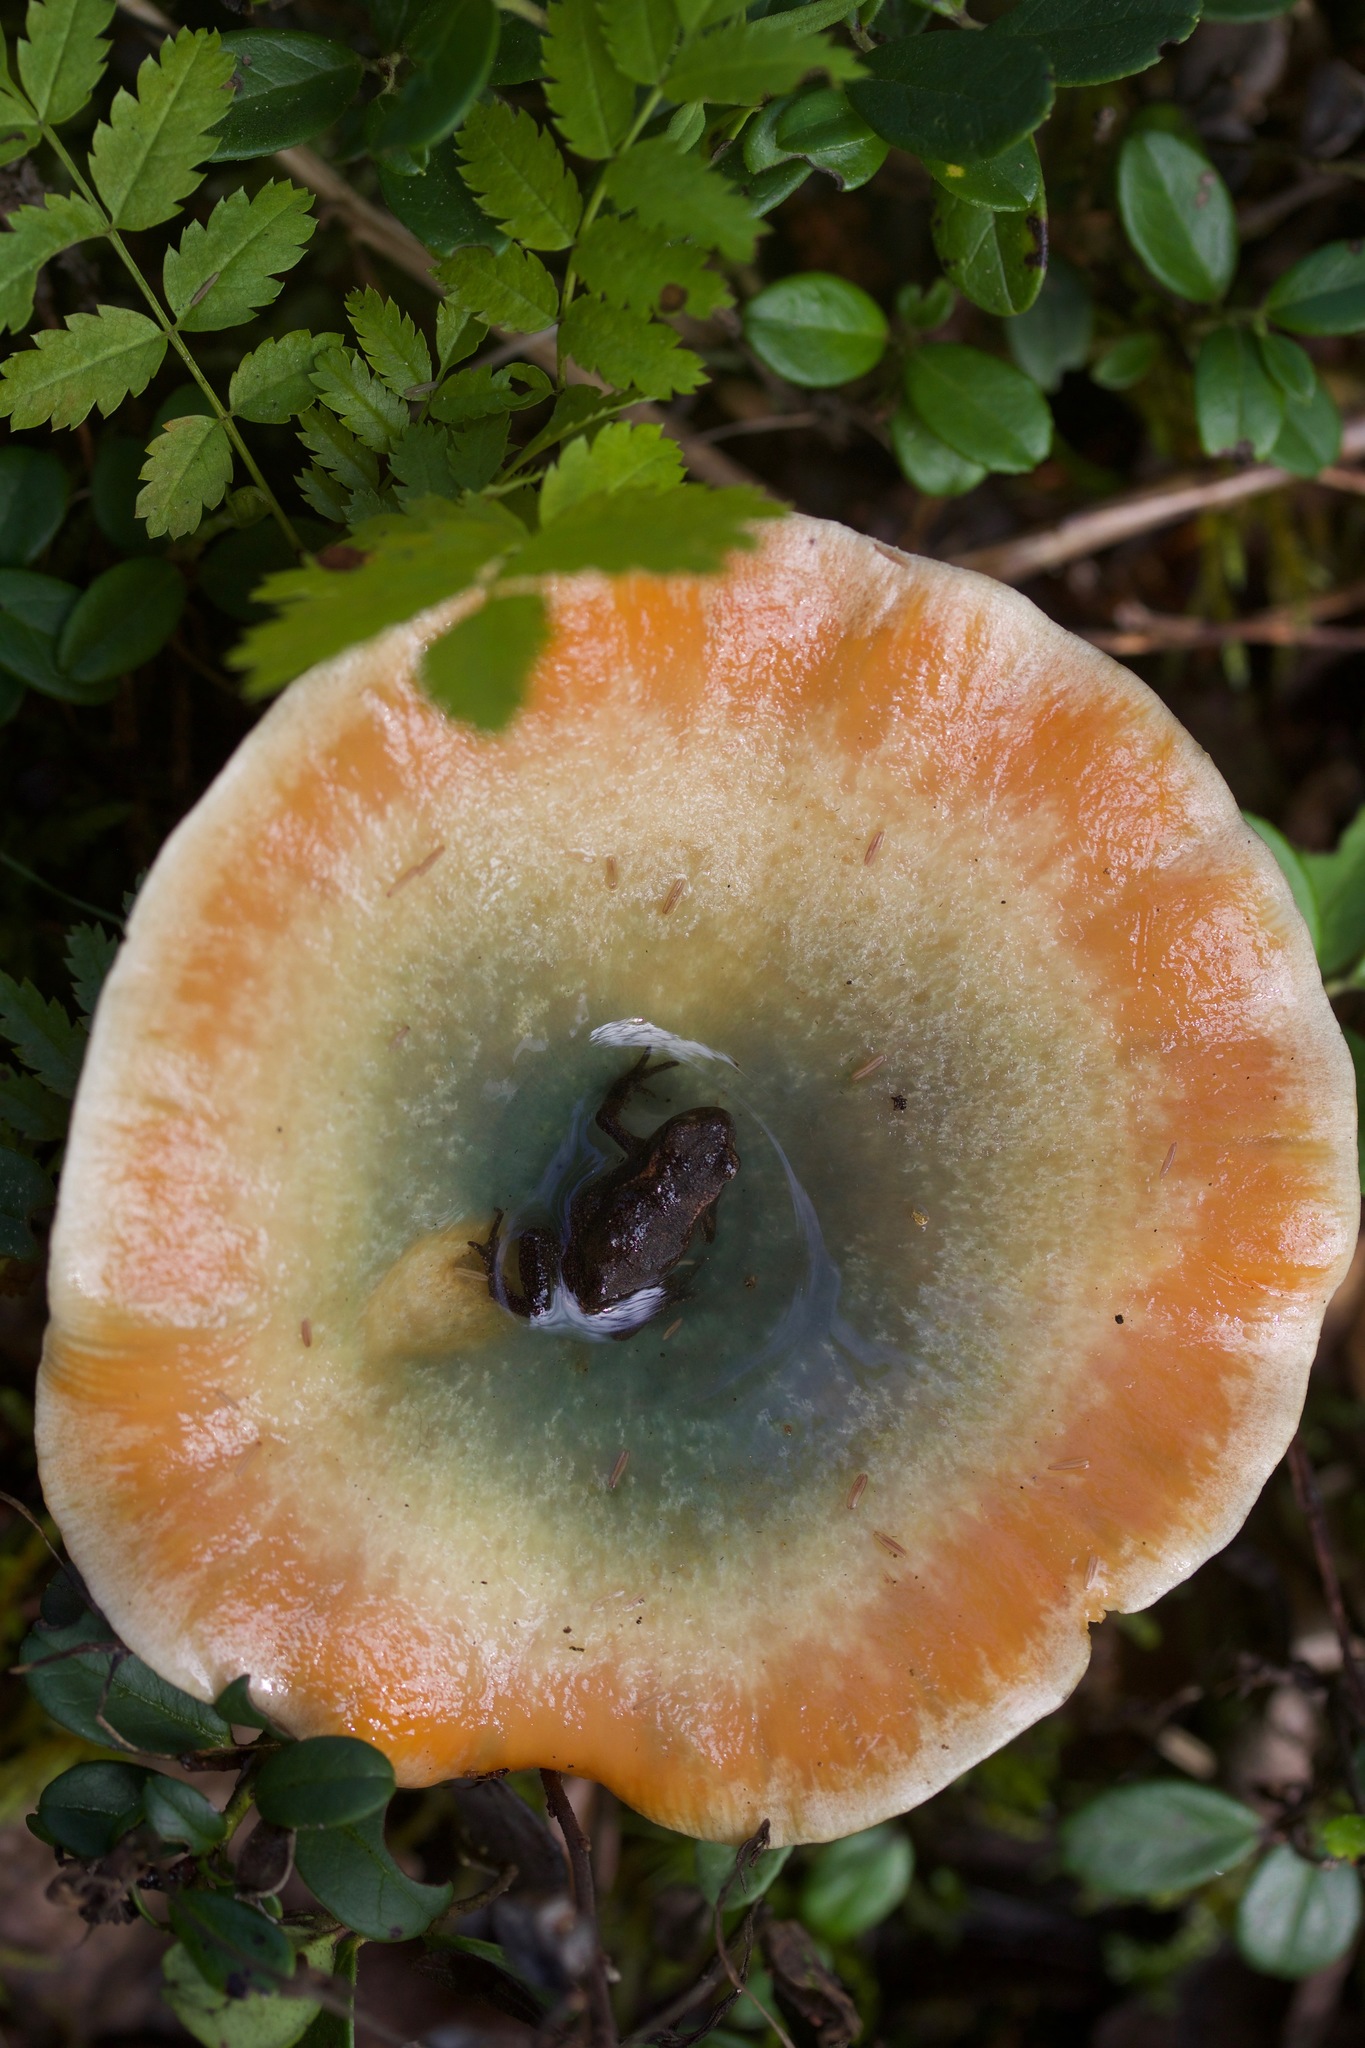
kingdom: Fungi
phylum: Basidiomycota
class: Agaricomycetes
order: Russulales
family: Russulaceae
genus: Lactarius
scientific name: Lactarius deliciosus
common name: Saffron milk-cap
